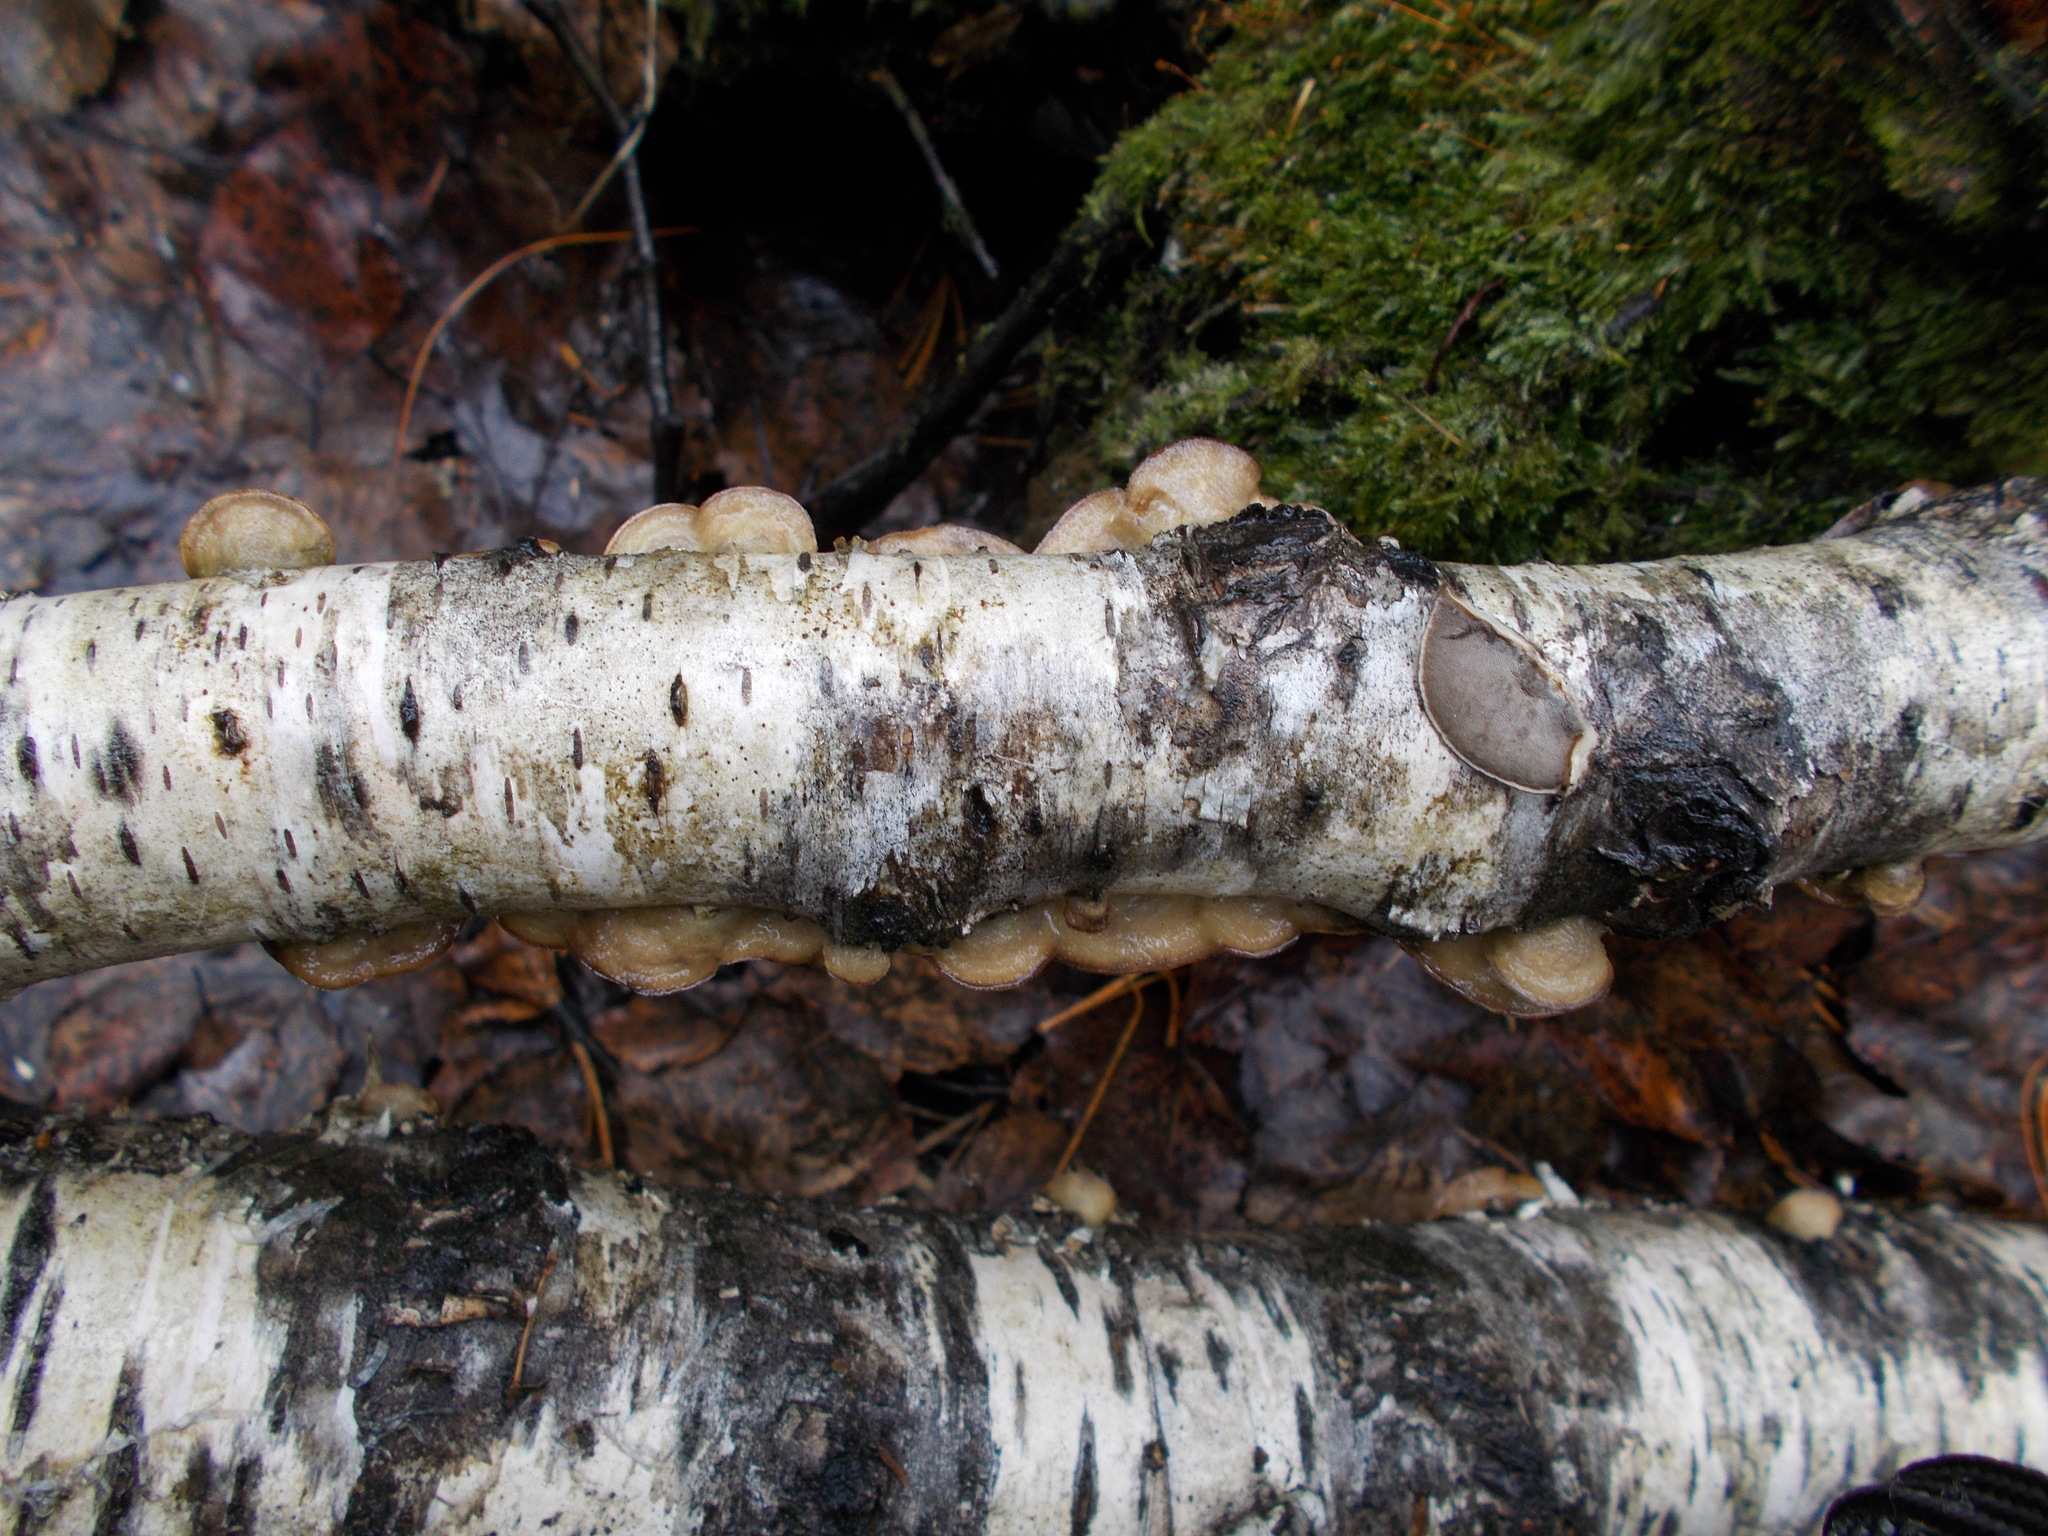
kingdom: Fungi
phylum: Basidiomycota
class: Agaricomycetes
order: Polyporales
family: Phanerochaetaceae
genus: Bjerkandera
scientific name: Bjerkandera adusta
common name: Smoky bracket
